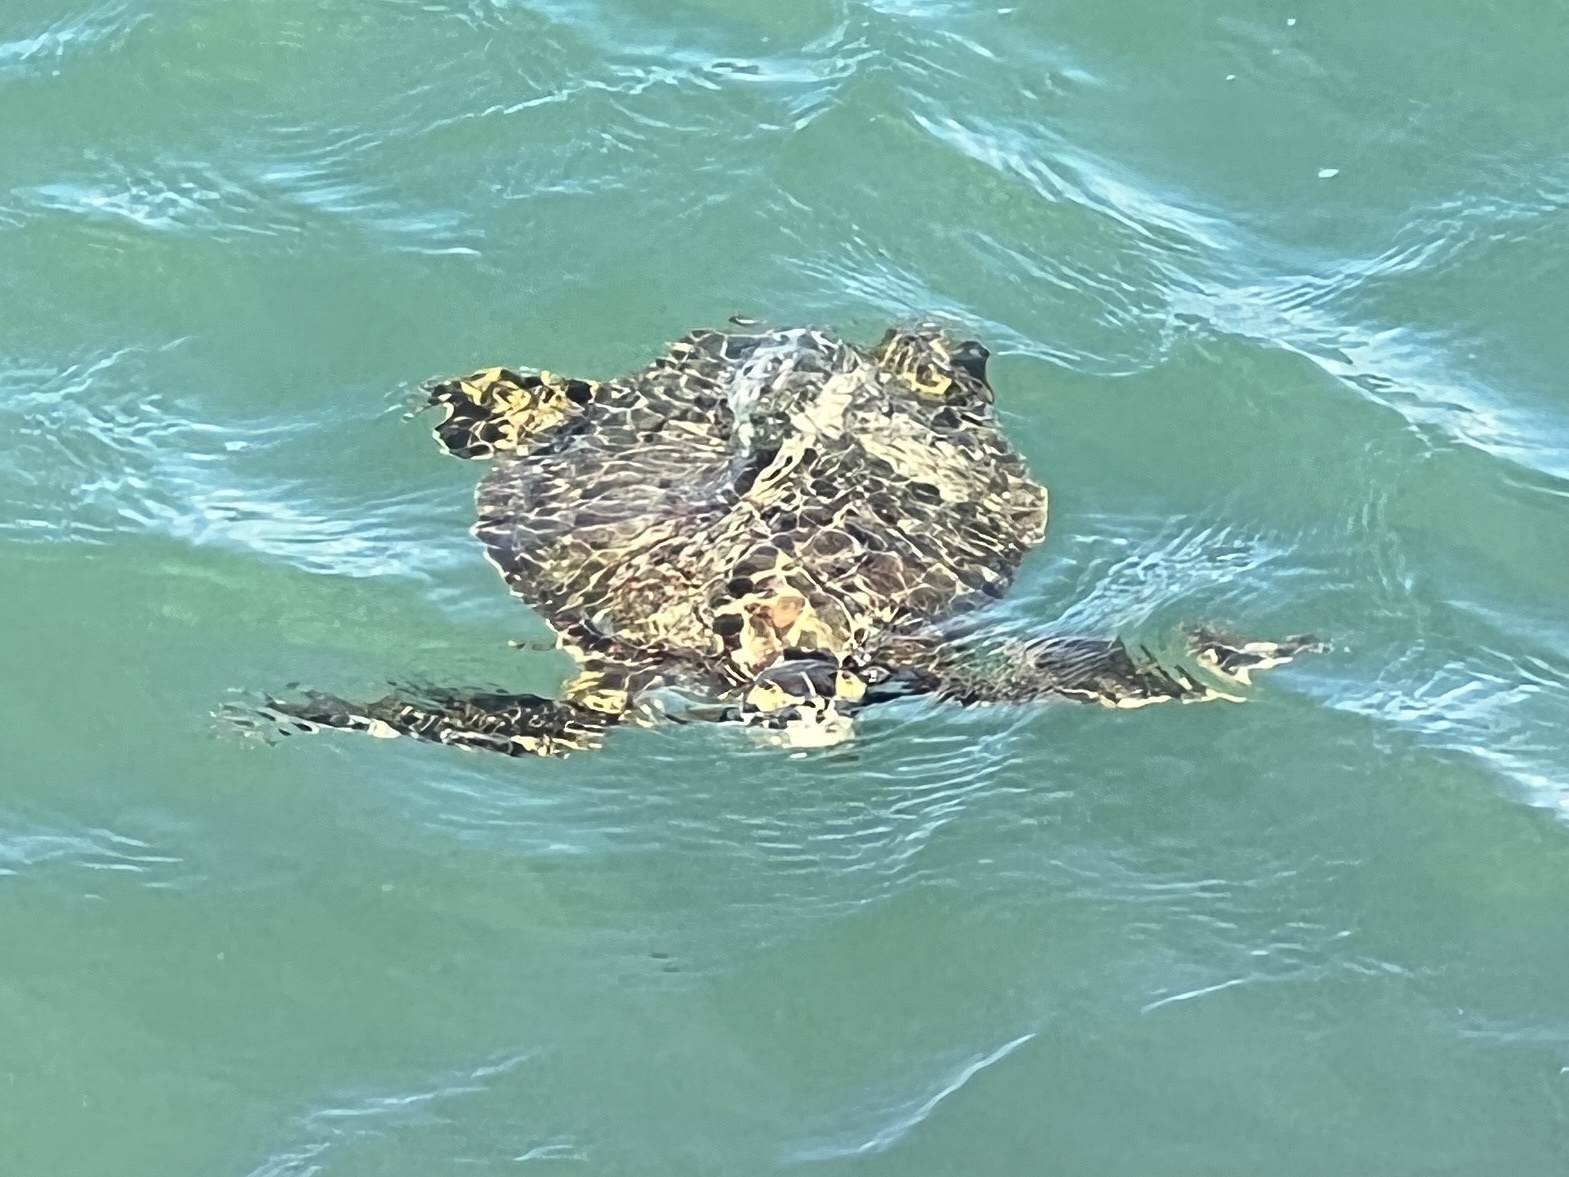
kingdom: Animalia
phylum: Chordata
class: Testudines
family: Cheloniidae
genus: Chelonia
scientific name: Chelonia mydas
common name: Green turtle
